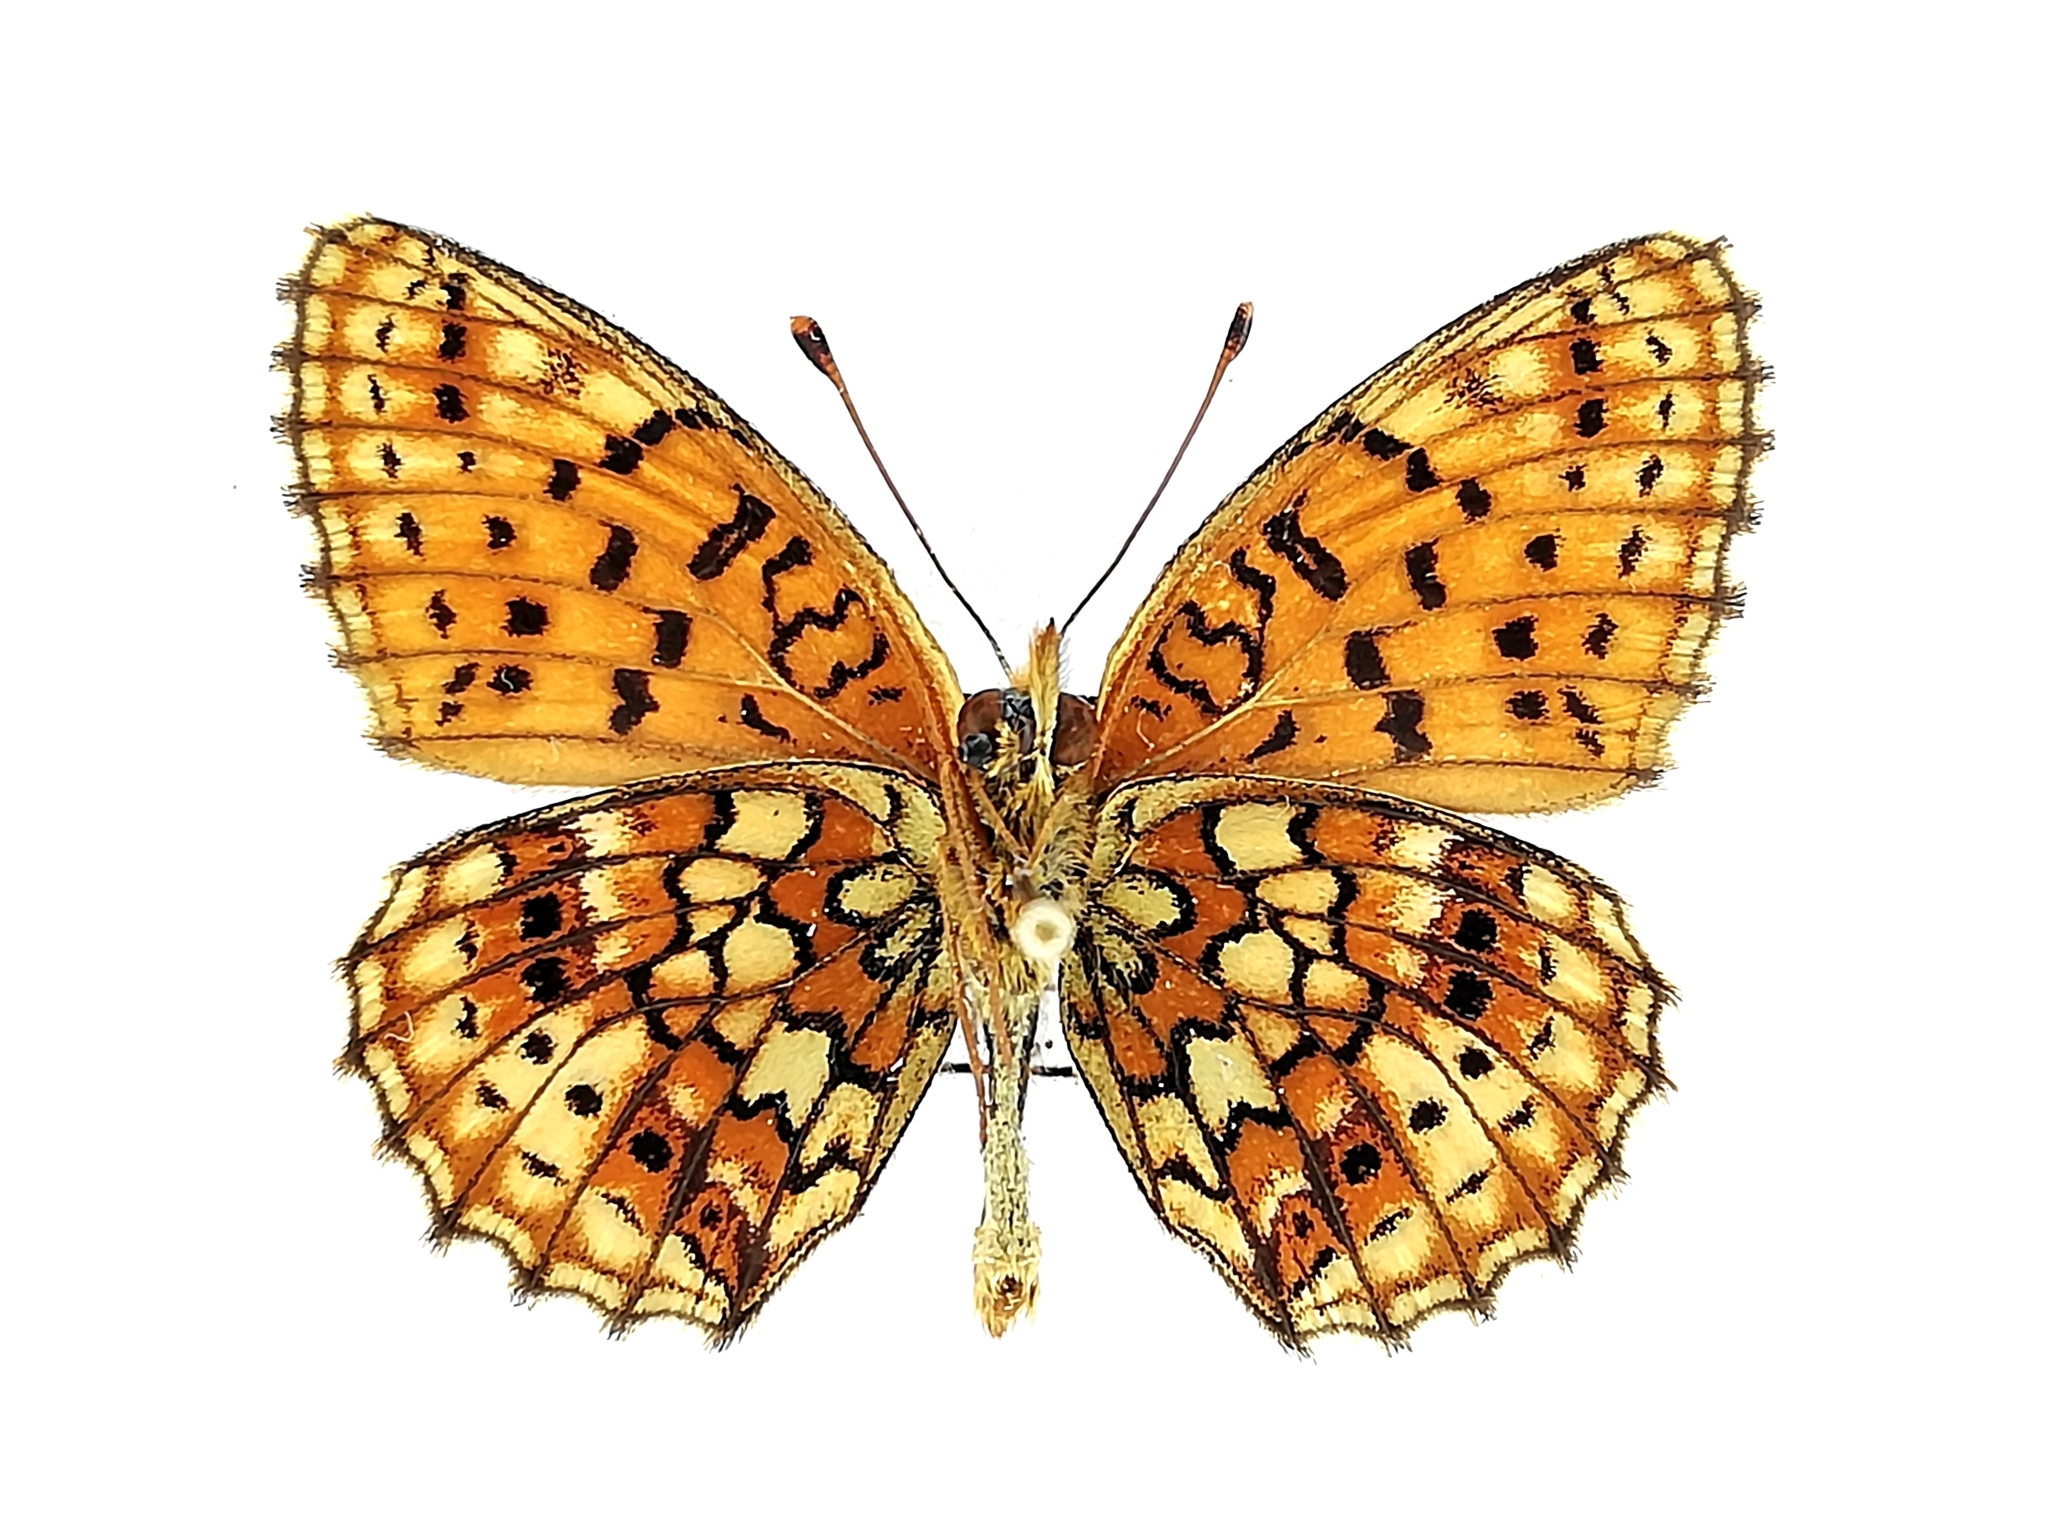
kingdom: Animalia
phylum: Arthropoda
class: Insecta
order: Lepidoptera
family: Nymphalidae
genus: Brenthis
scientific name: Brenthis hecate
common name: Twin-spot fritillary
